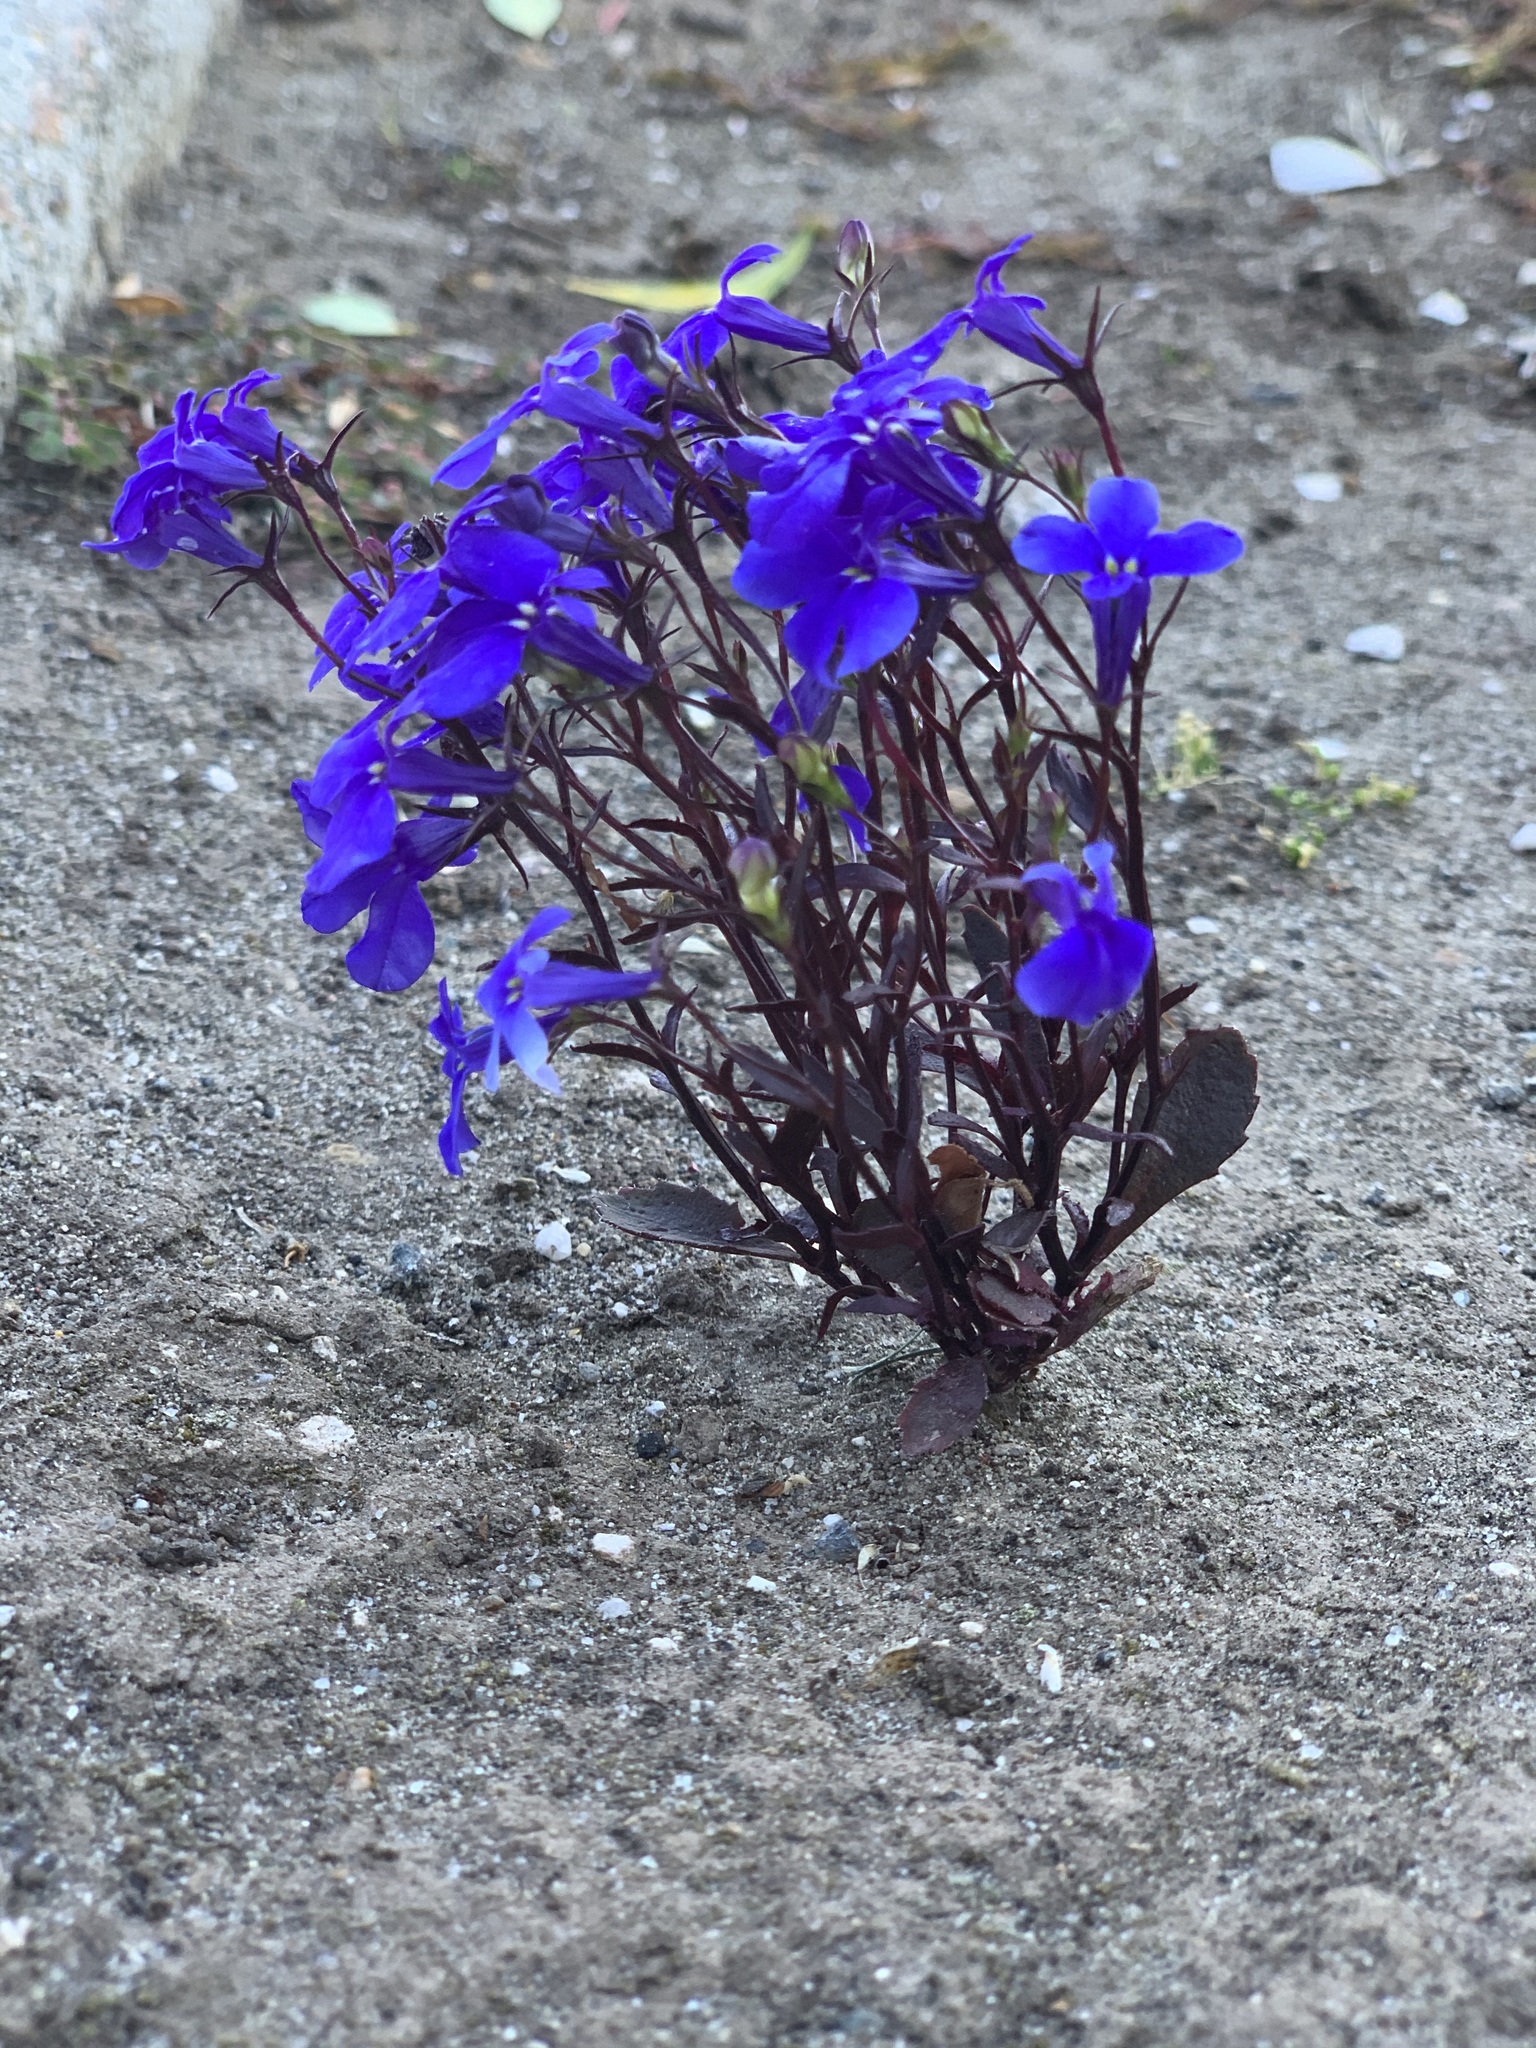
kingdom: Plantae
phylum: Tracheophyta
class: Magnoliopsida
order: Asterales
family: Campanulaceae
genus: Lobelia
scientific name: Lobelia erinus
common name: Edging lobelia
